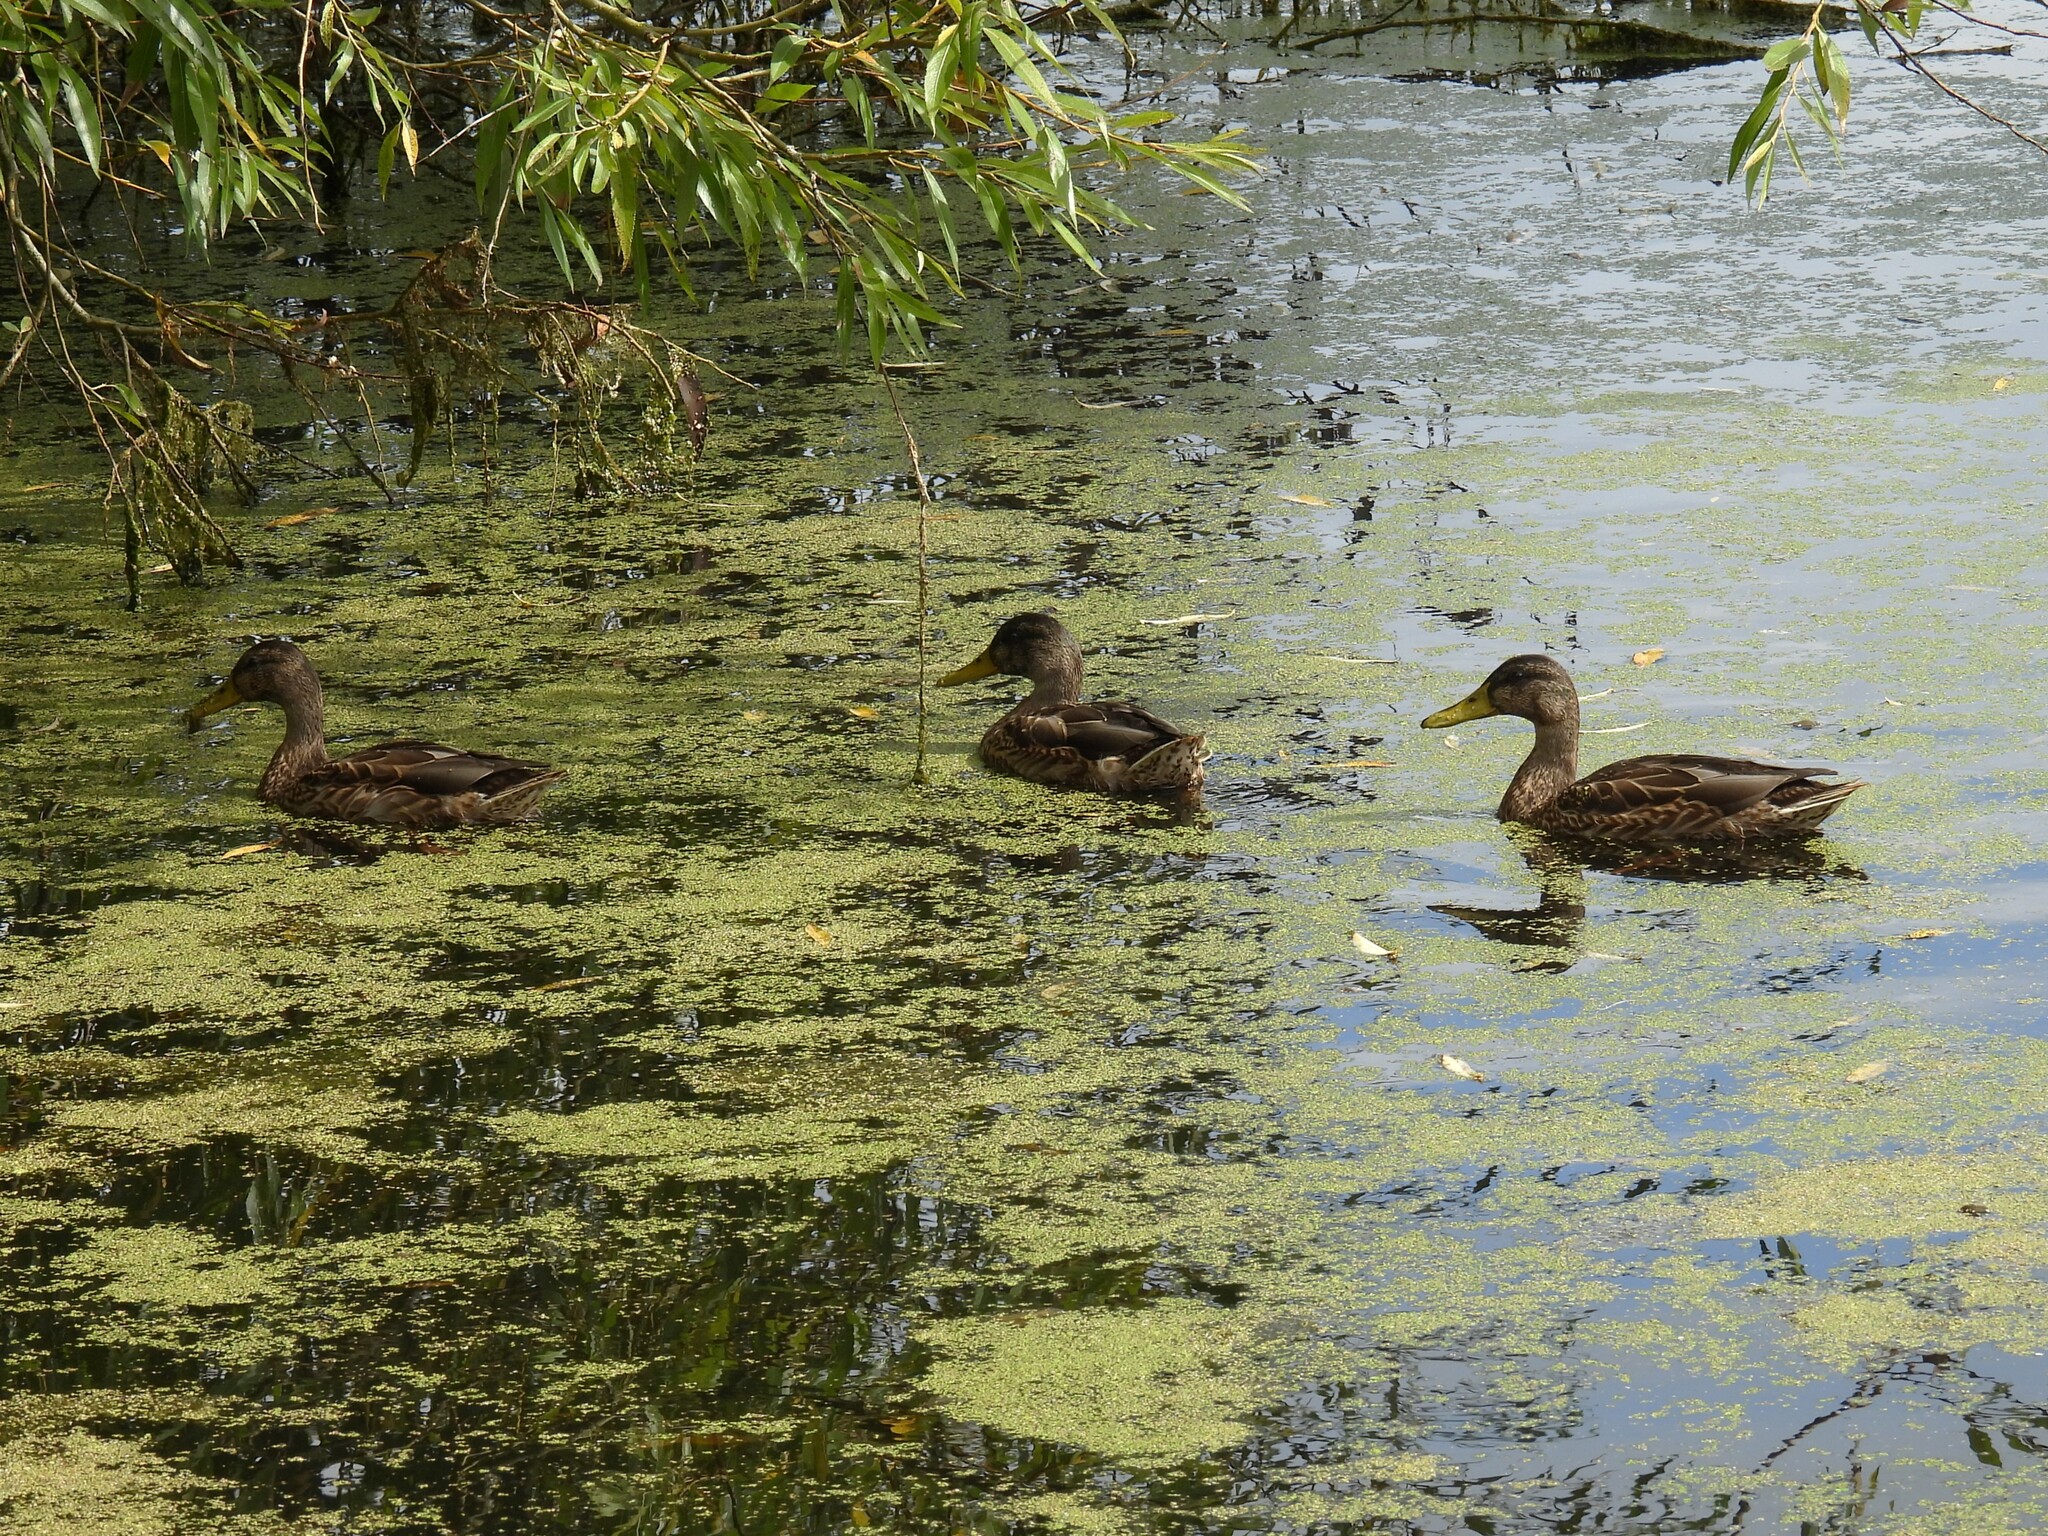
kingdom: Animalia
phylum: Chordata
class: Aves
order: Anseriformes
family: Anatidae
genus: Anas
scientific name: Anas platyrhynchos
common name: Mallard
